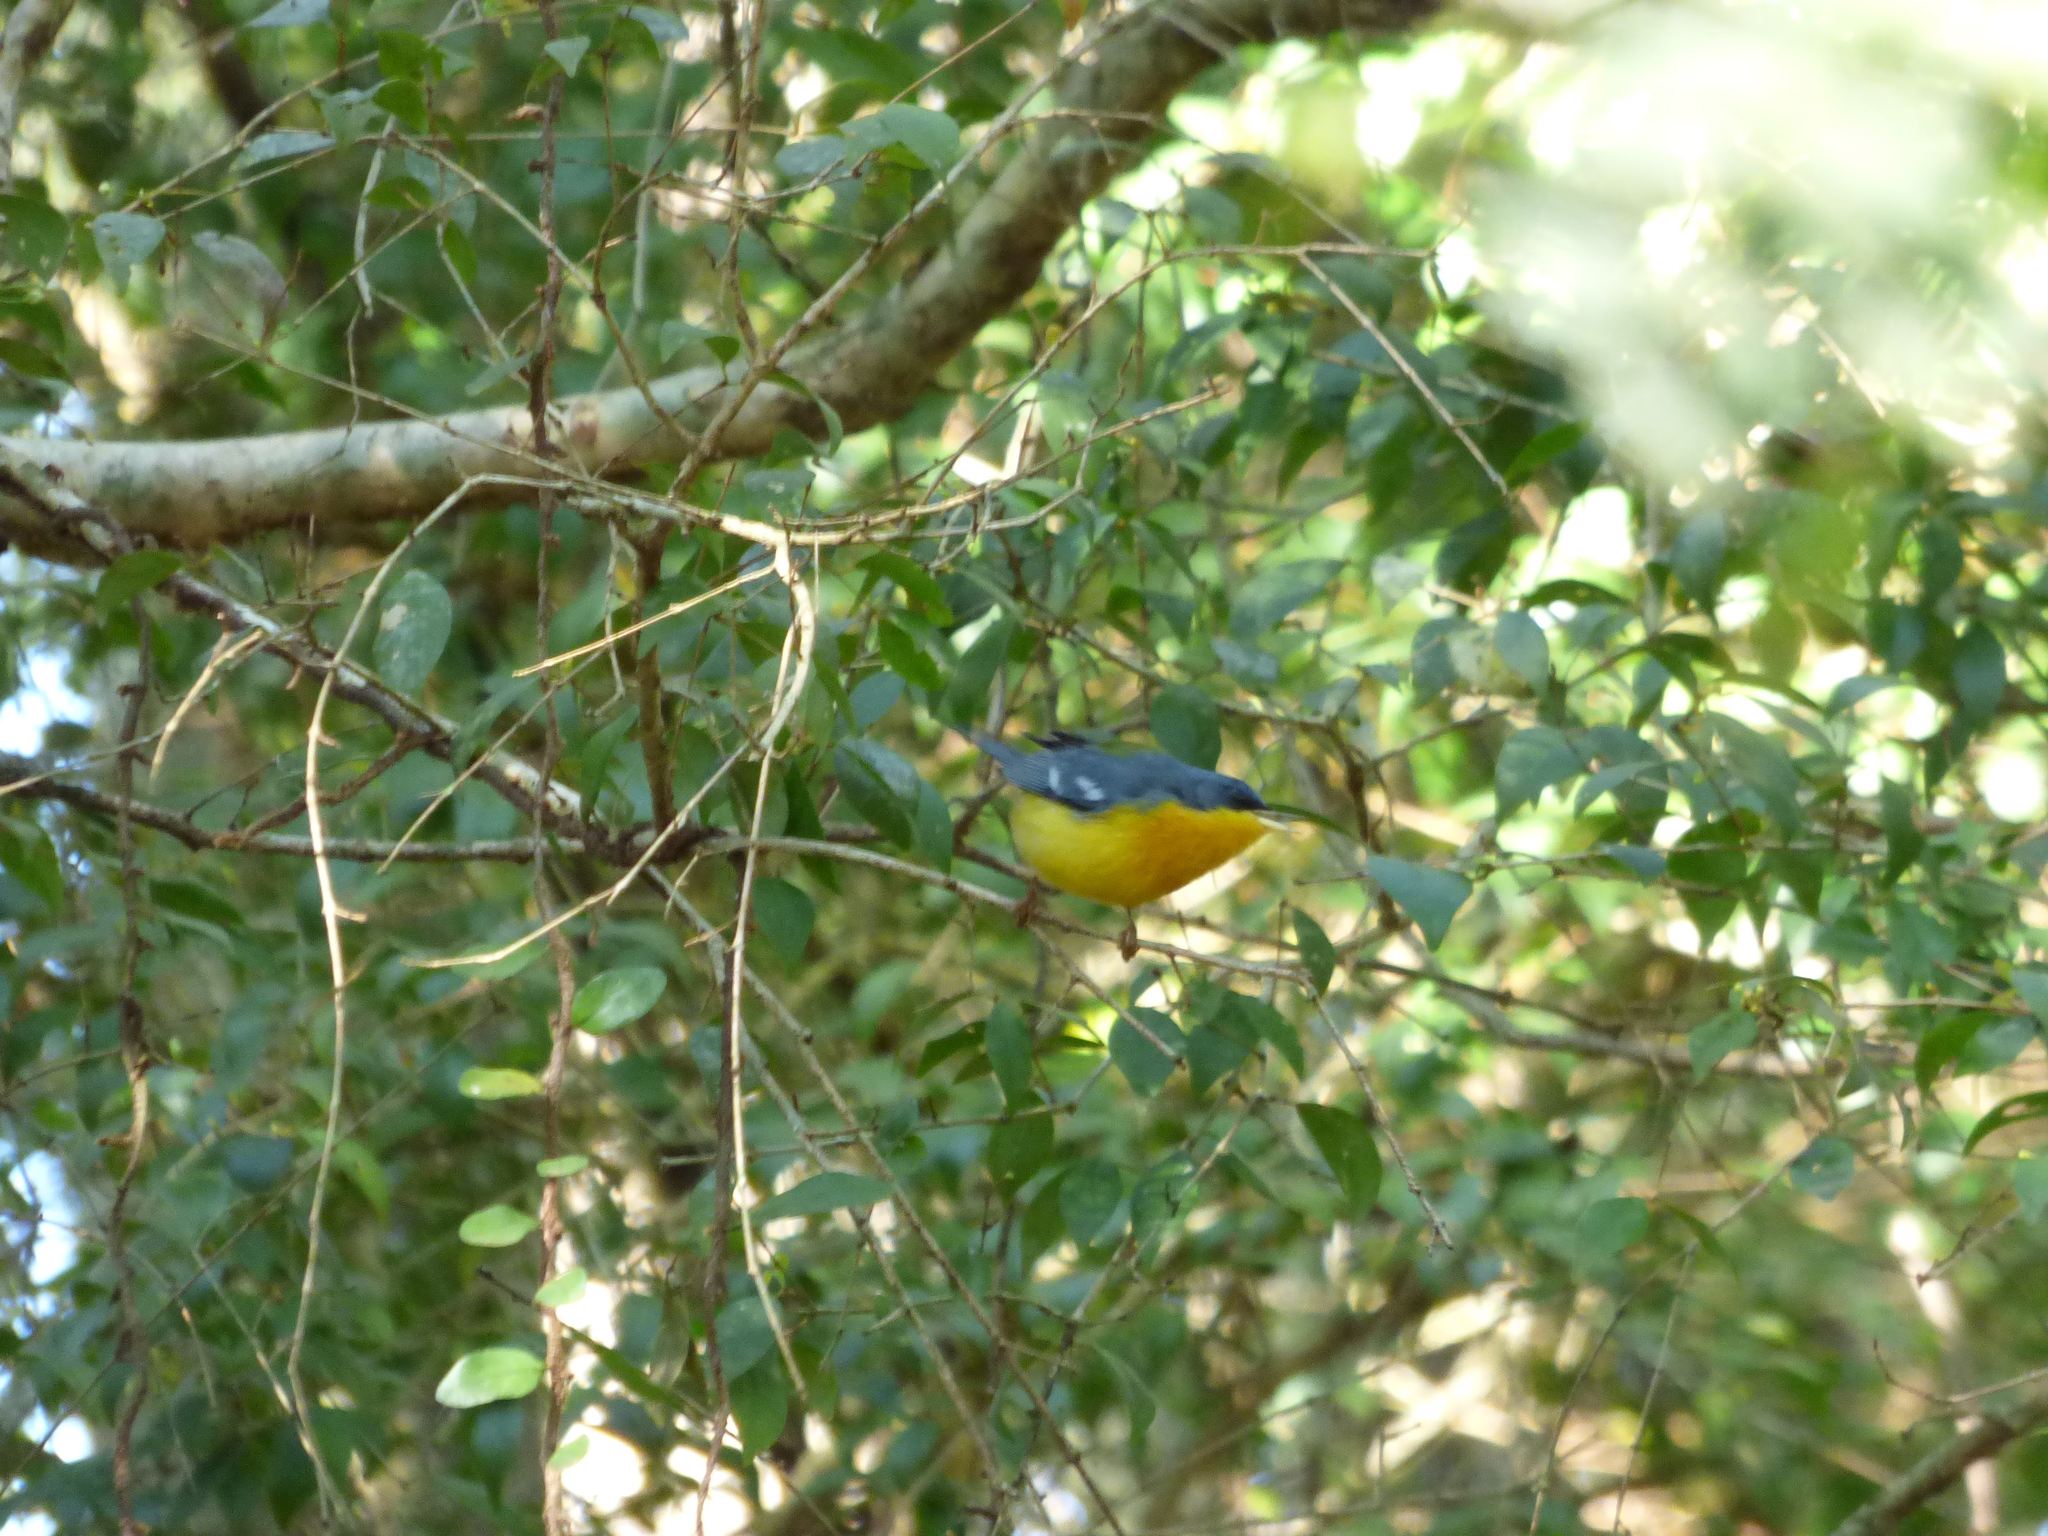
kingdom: Animalia
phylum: Chordata
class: Aves
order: Passeriformes
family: Parulidae
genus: Setophaga
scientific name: Setophaga pitiayumi
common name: Tropical parula
